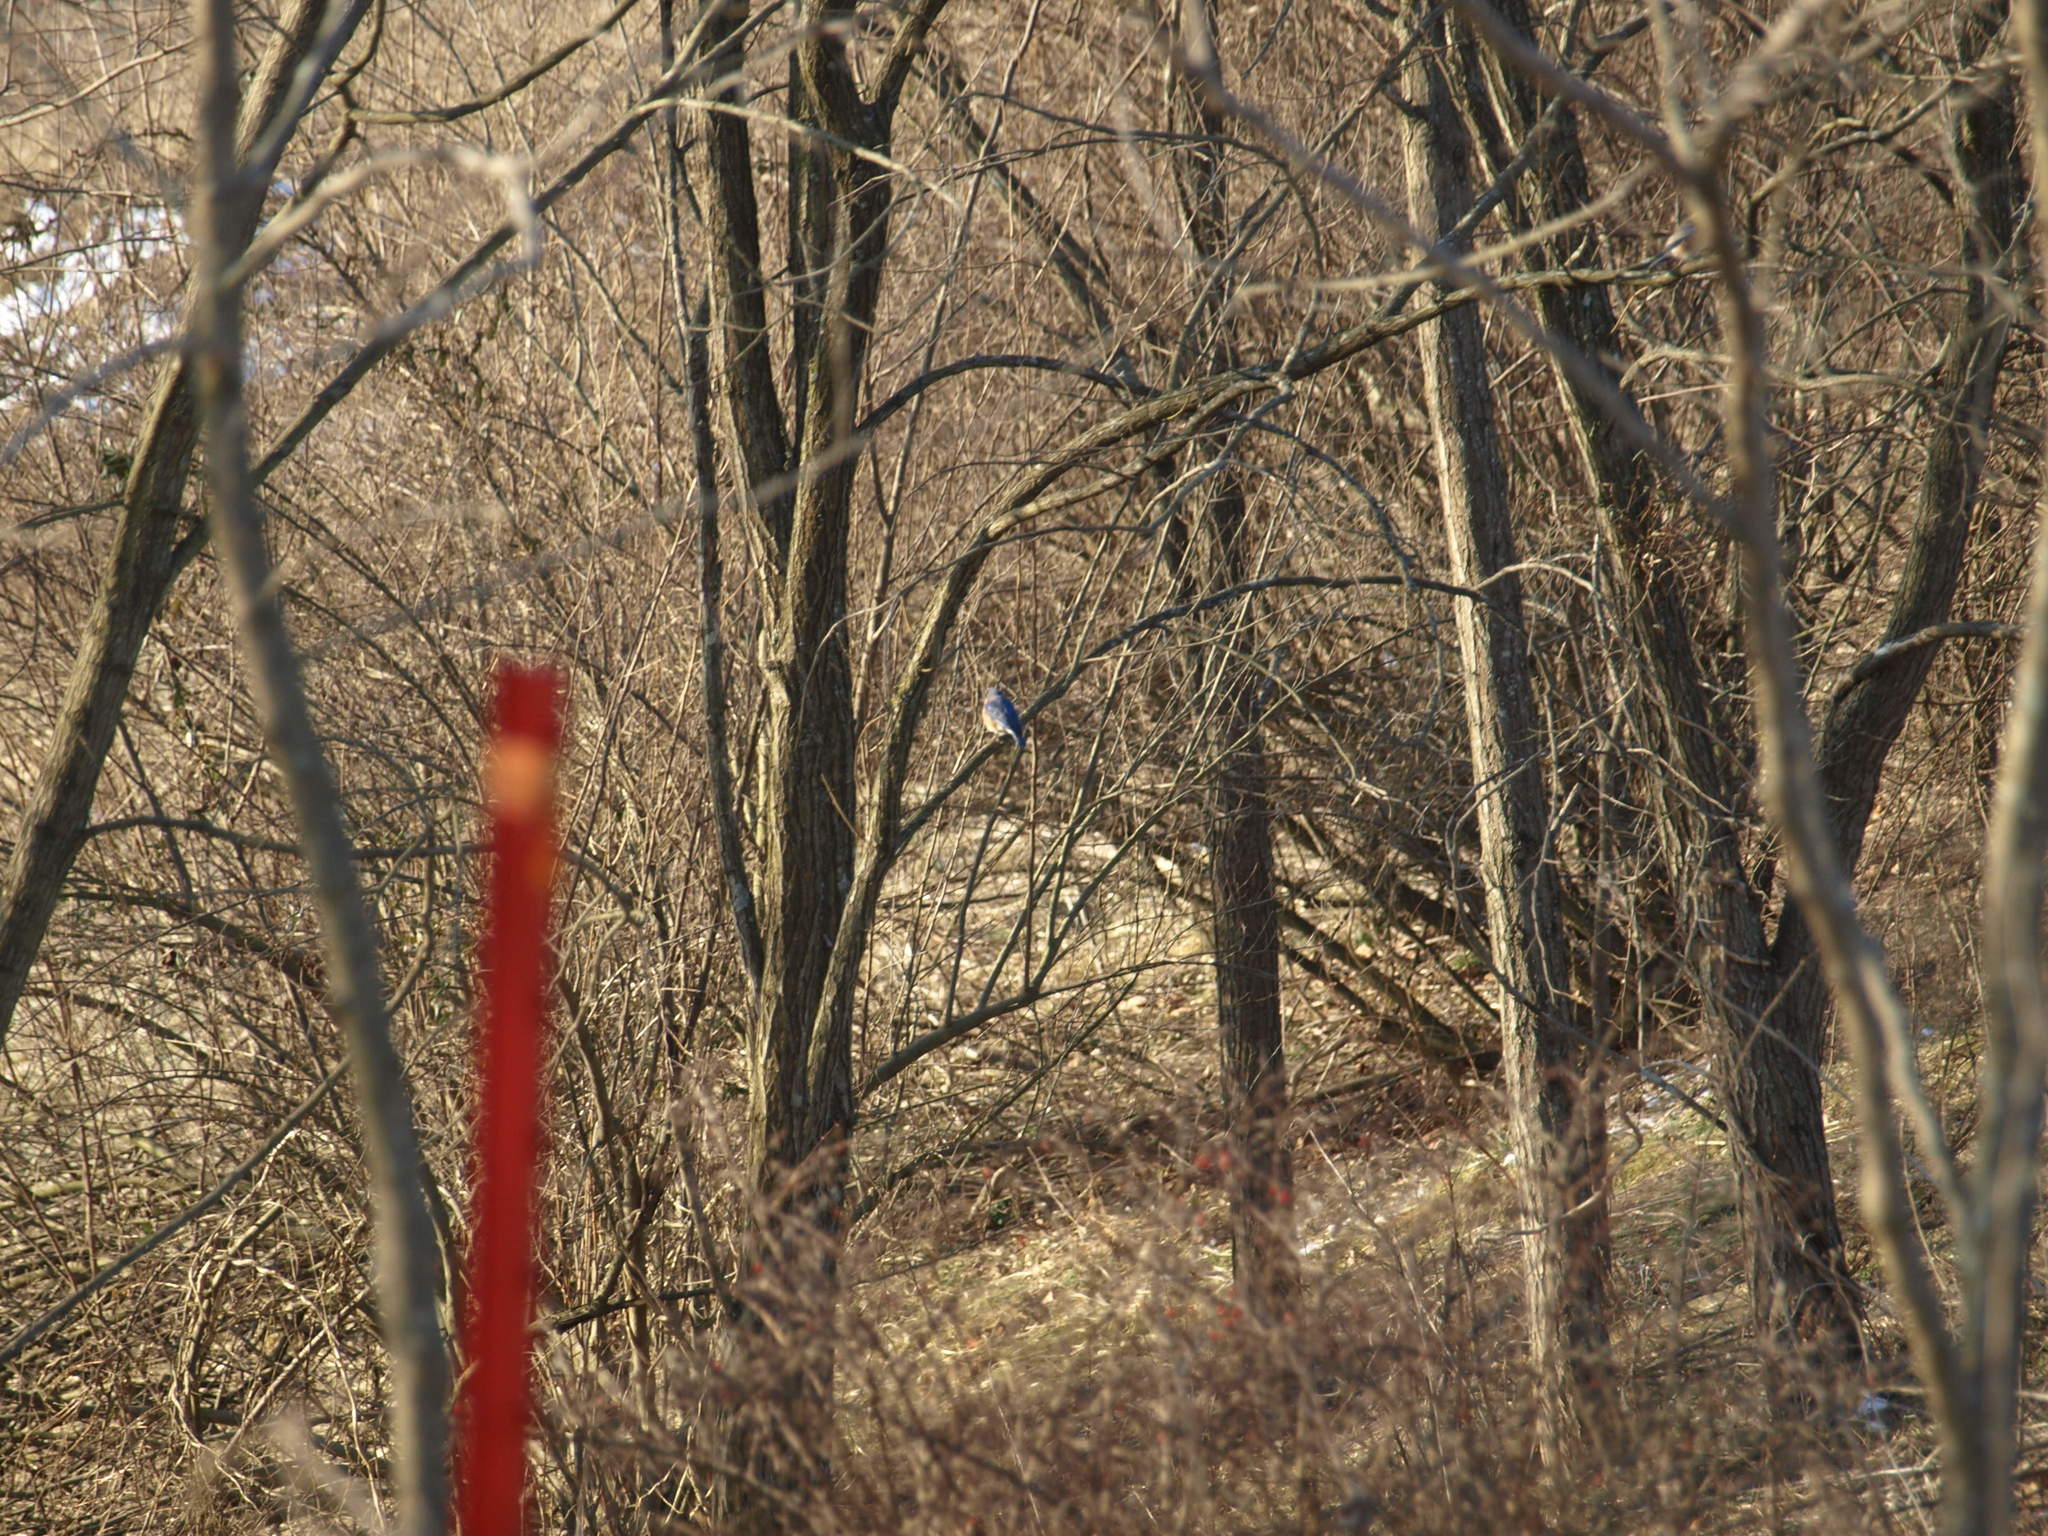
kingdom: Animalia
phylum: Chordata
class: Aves
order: Passeriformes
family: Turdidae
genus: Sialia
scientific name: Sialia sialis
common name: Eastern bluebird
